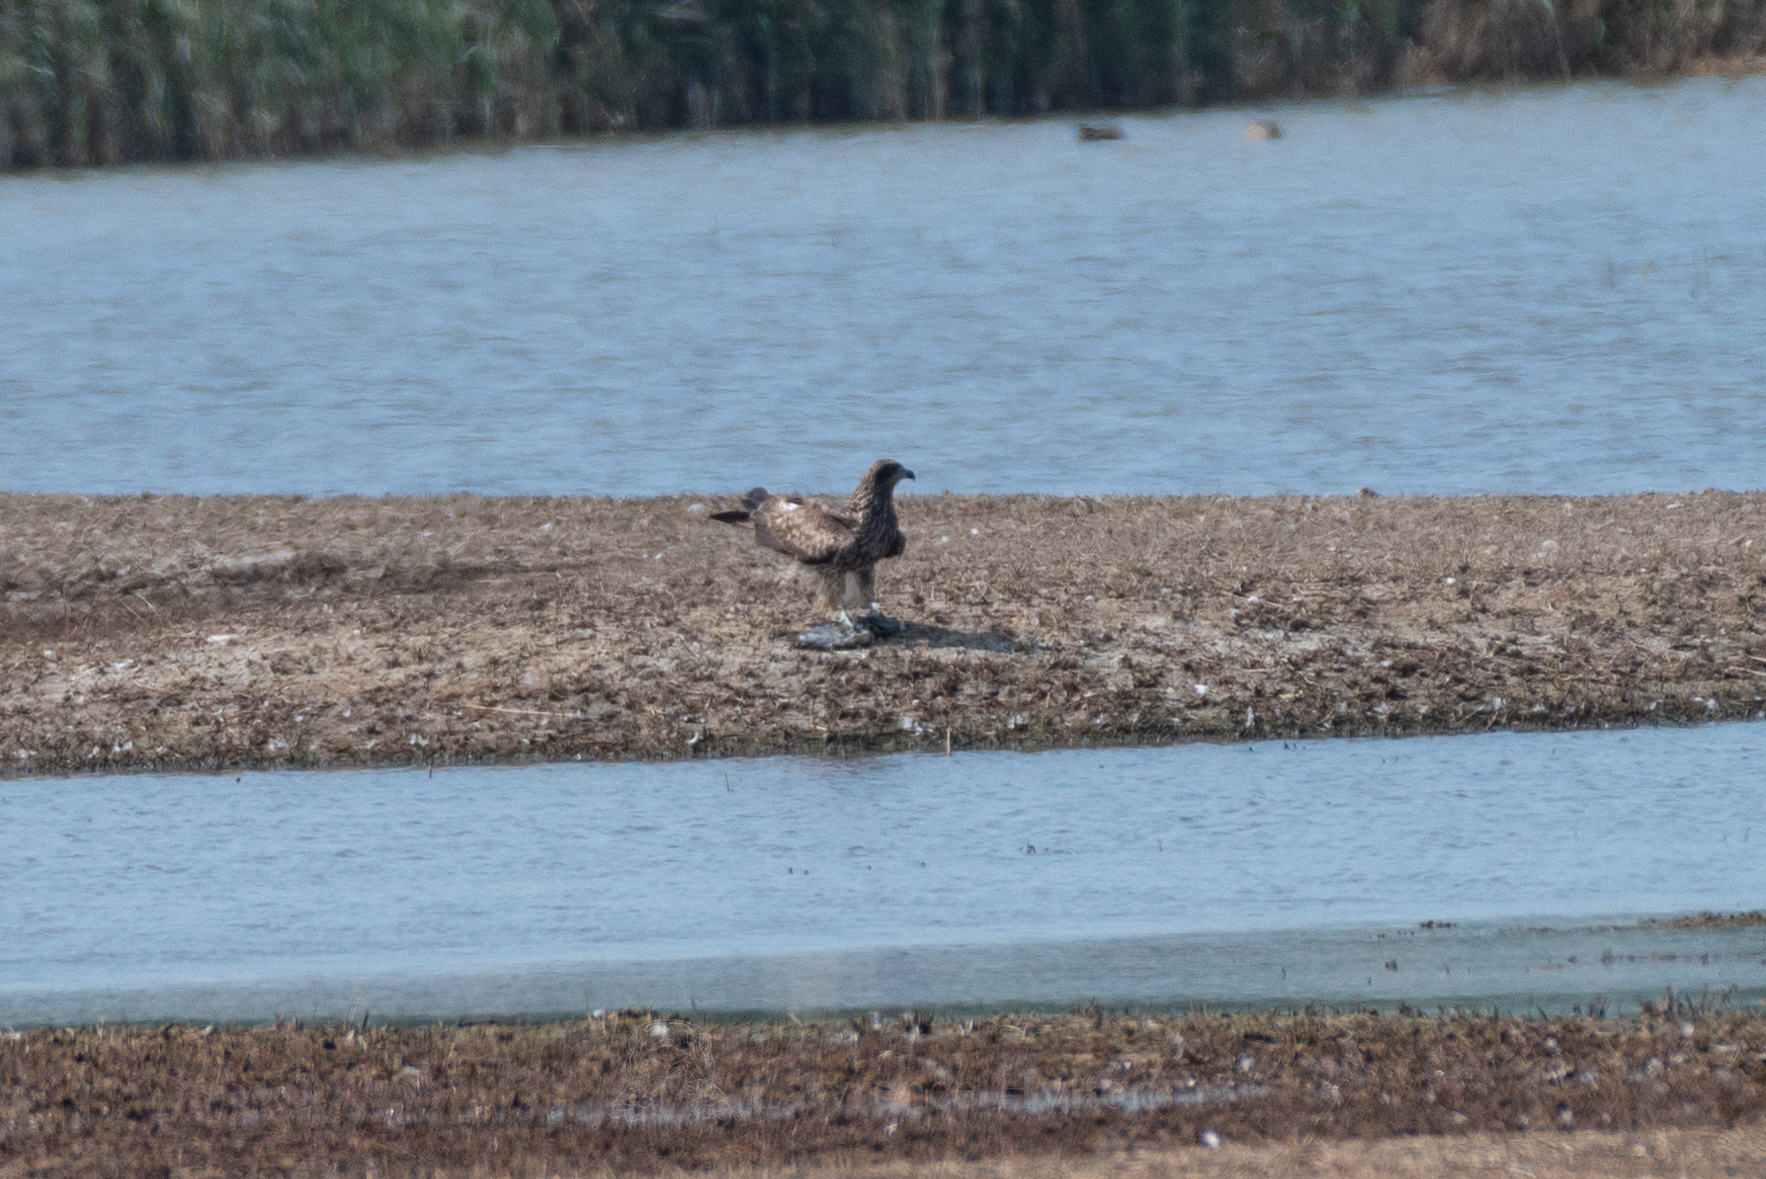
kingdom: Animalia
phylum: Chordata
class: Aves
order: Accipitriformes
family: Accipitridae
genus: Milvus
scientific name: Milvus migrans
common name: Black kite
